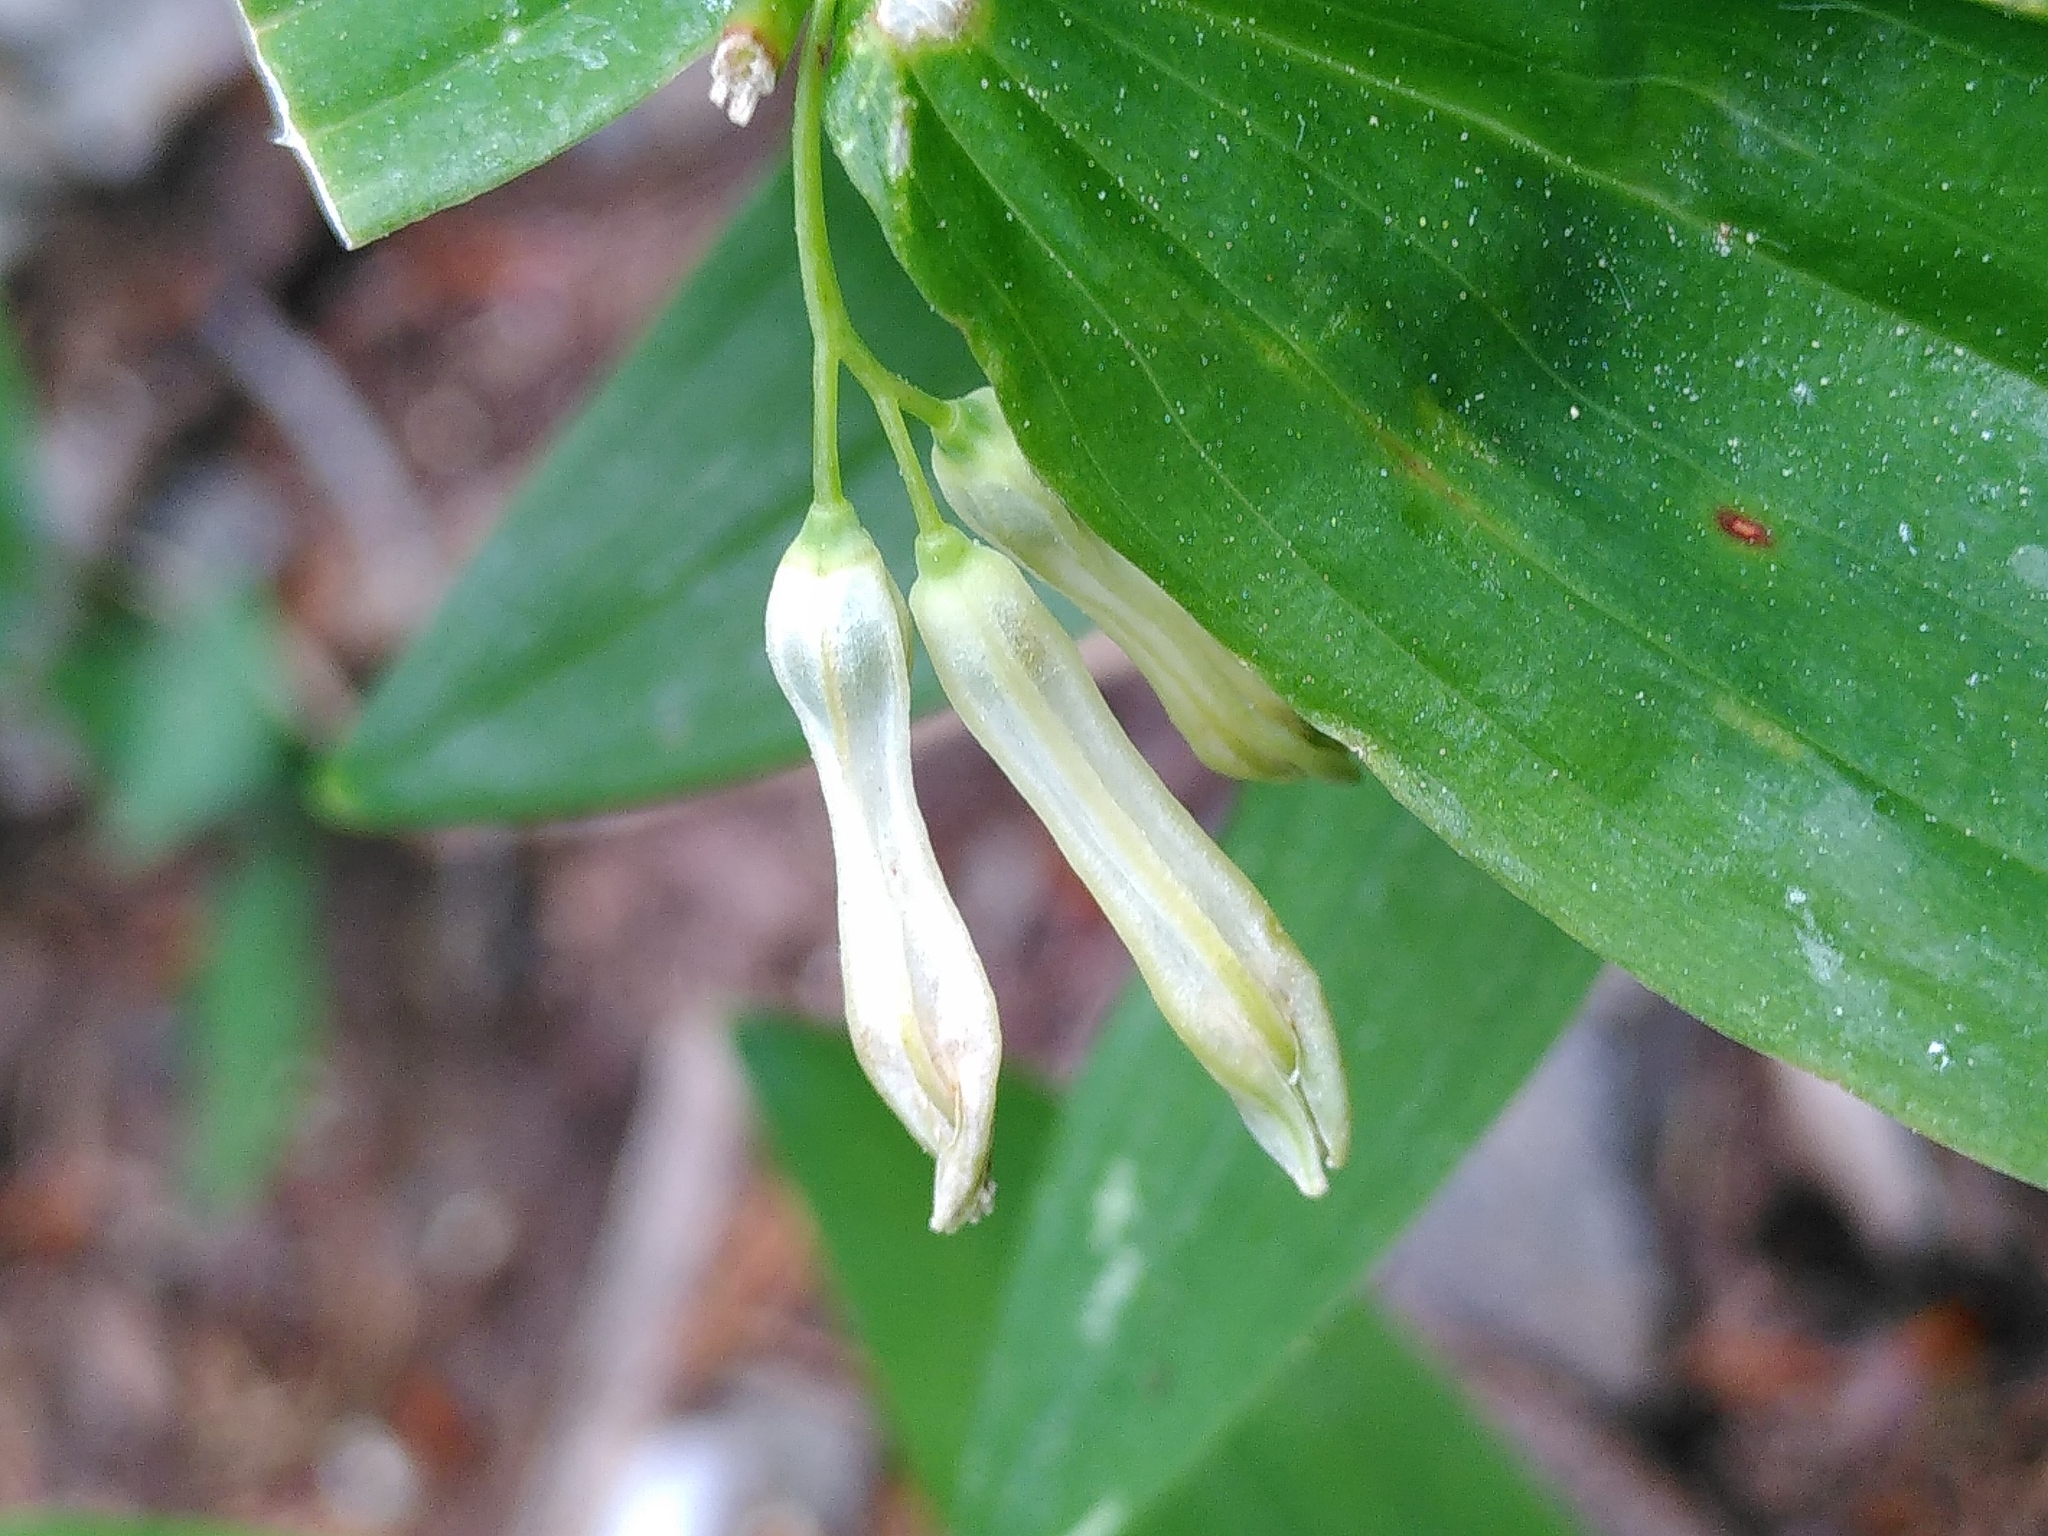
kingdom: Plantae
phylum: Tracheophyta
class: Liliopsida
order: Asparagales
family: Asparagaceae
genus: Polygonatum
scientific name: Polygonatum multiflorum
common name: Solomon's-seal
